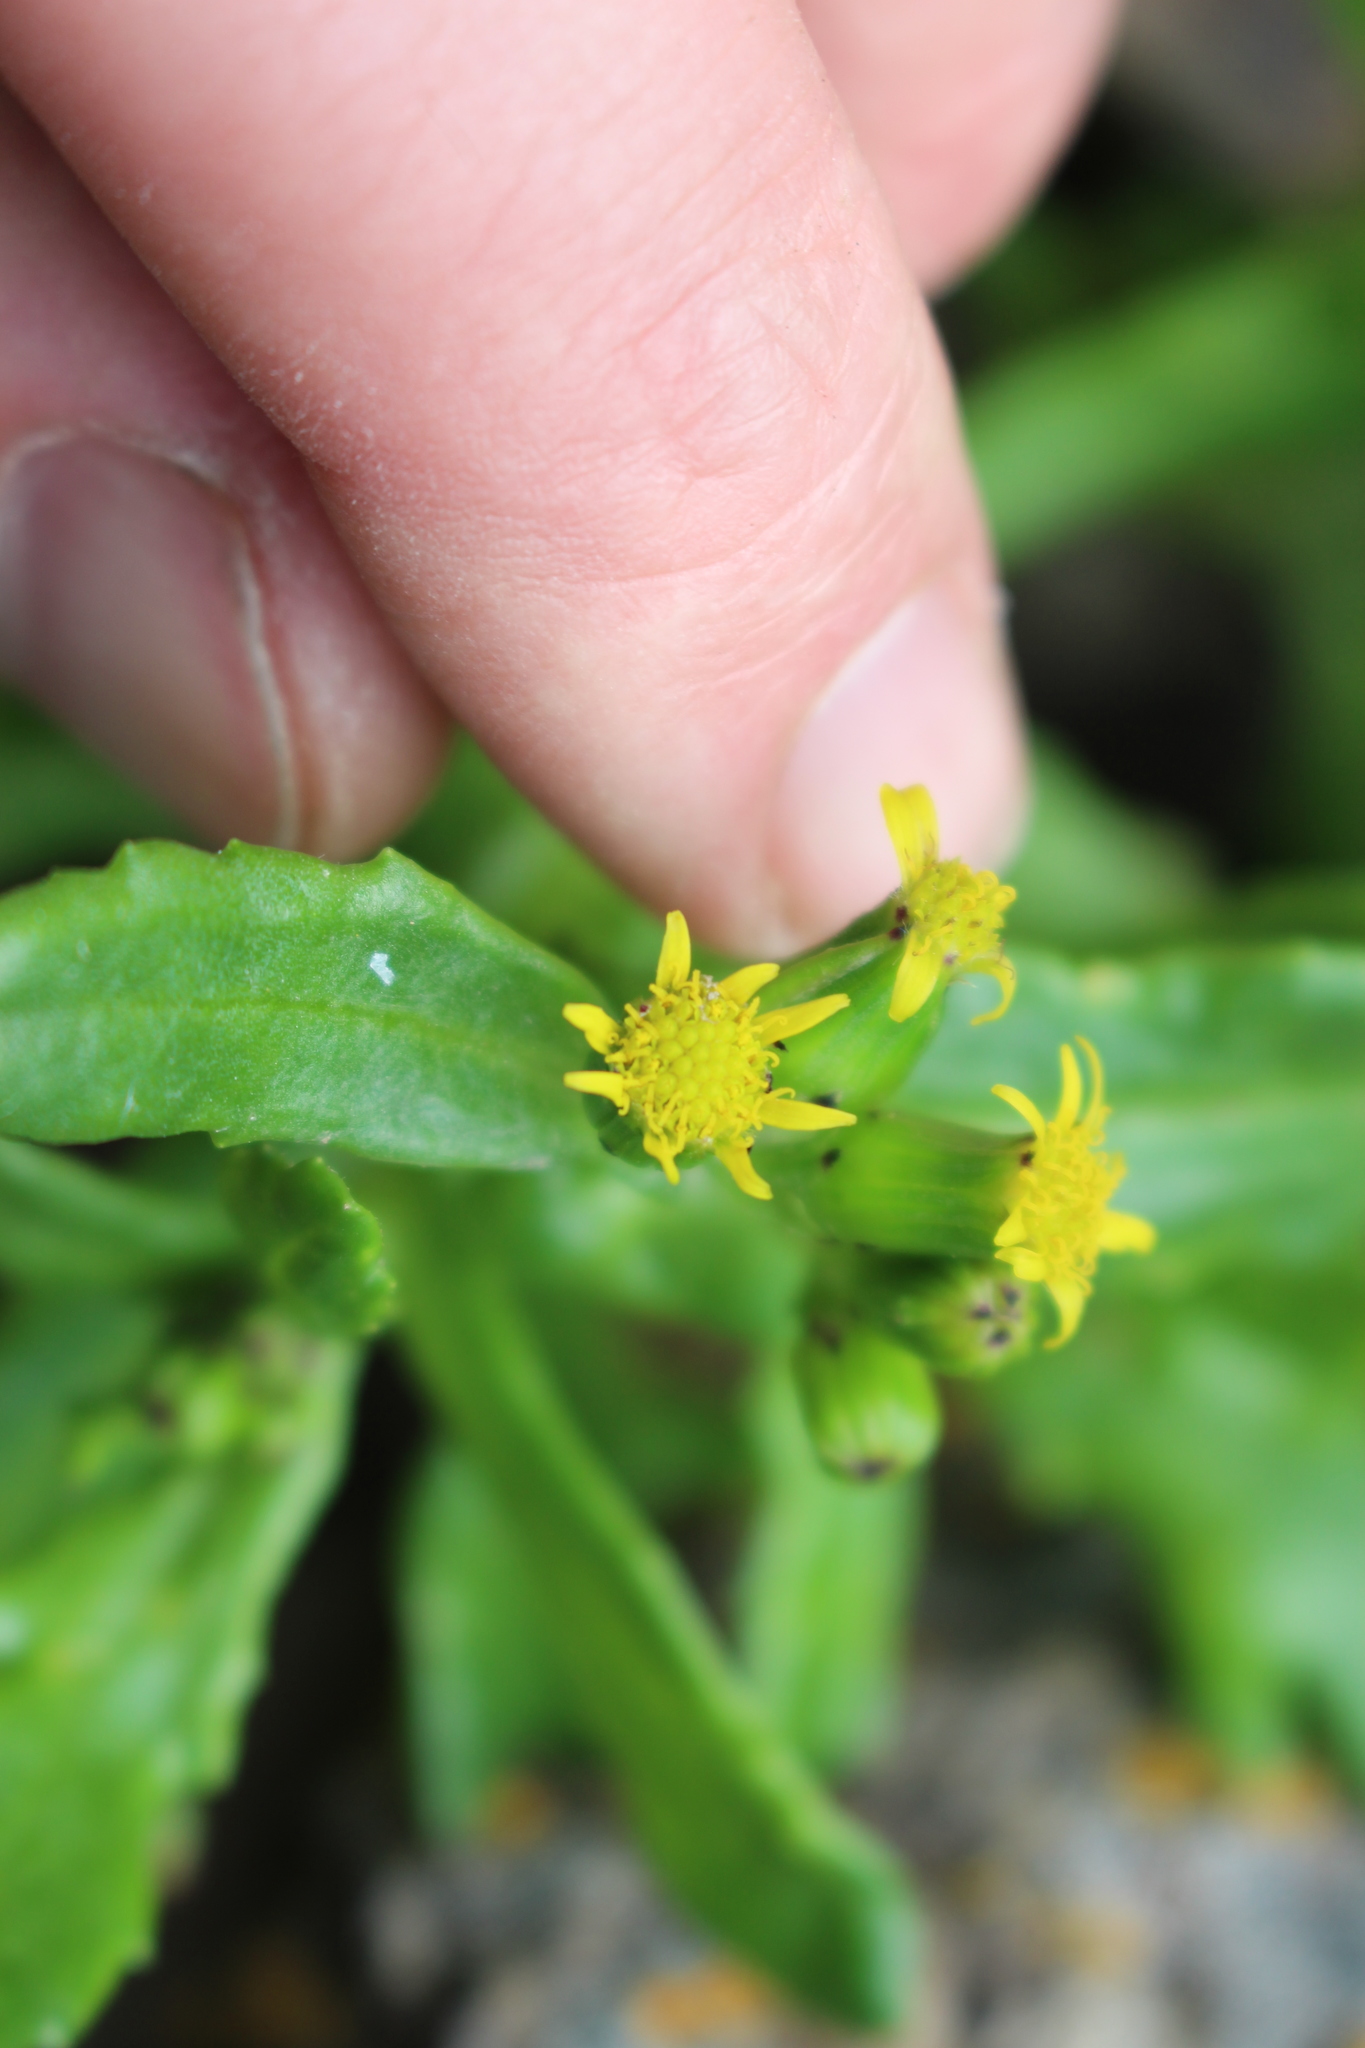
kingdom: Plantae
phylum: Tracheophyta
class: Magnoliopsida
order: Asterales
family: Asteraceae
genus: Senecio
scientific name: Senecio carnosulus
